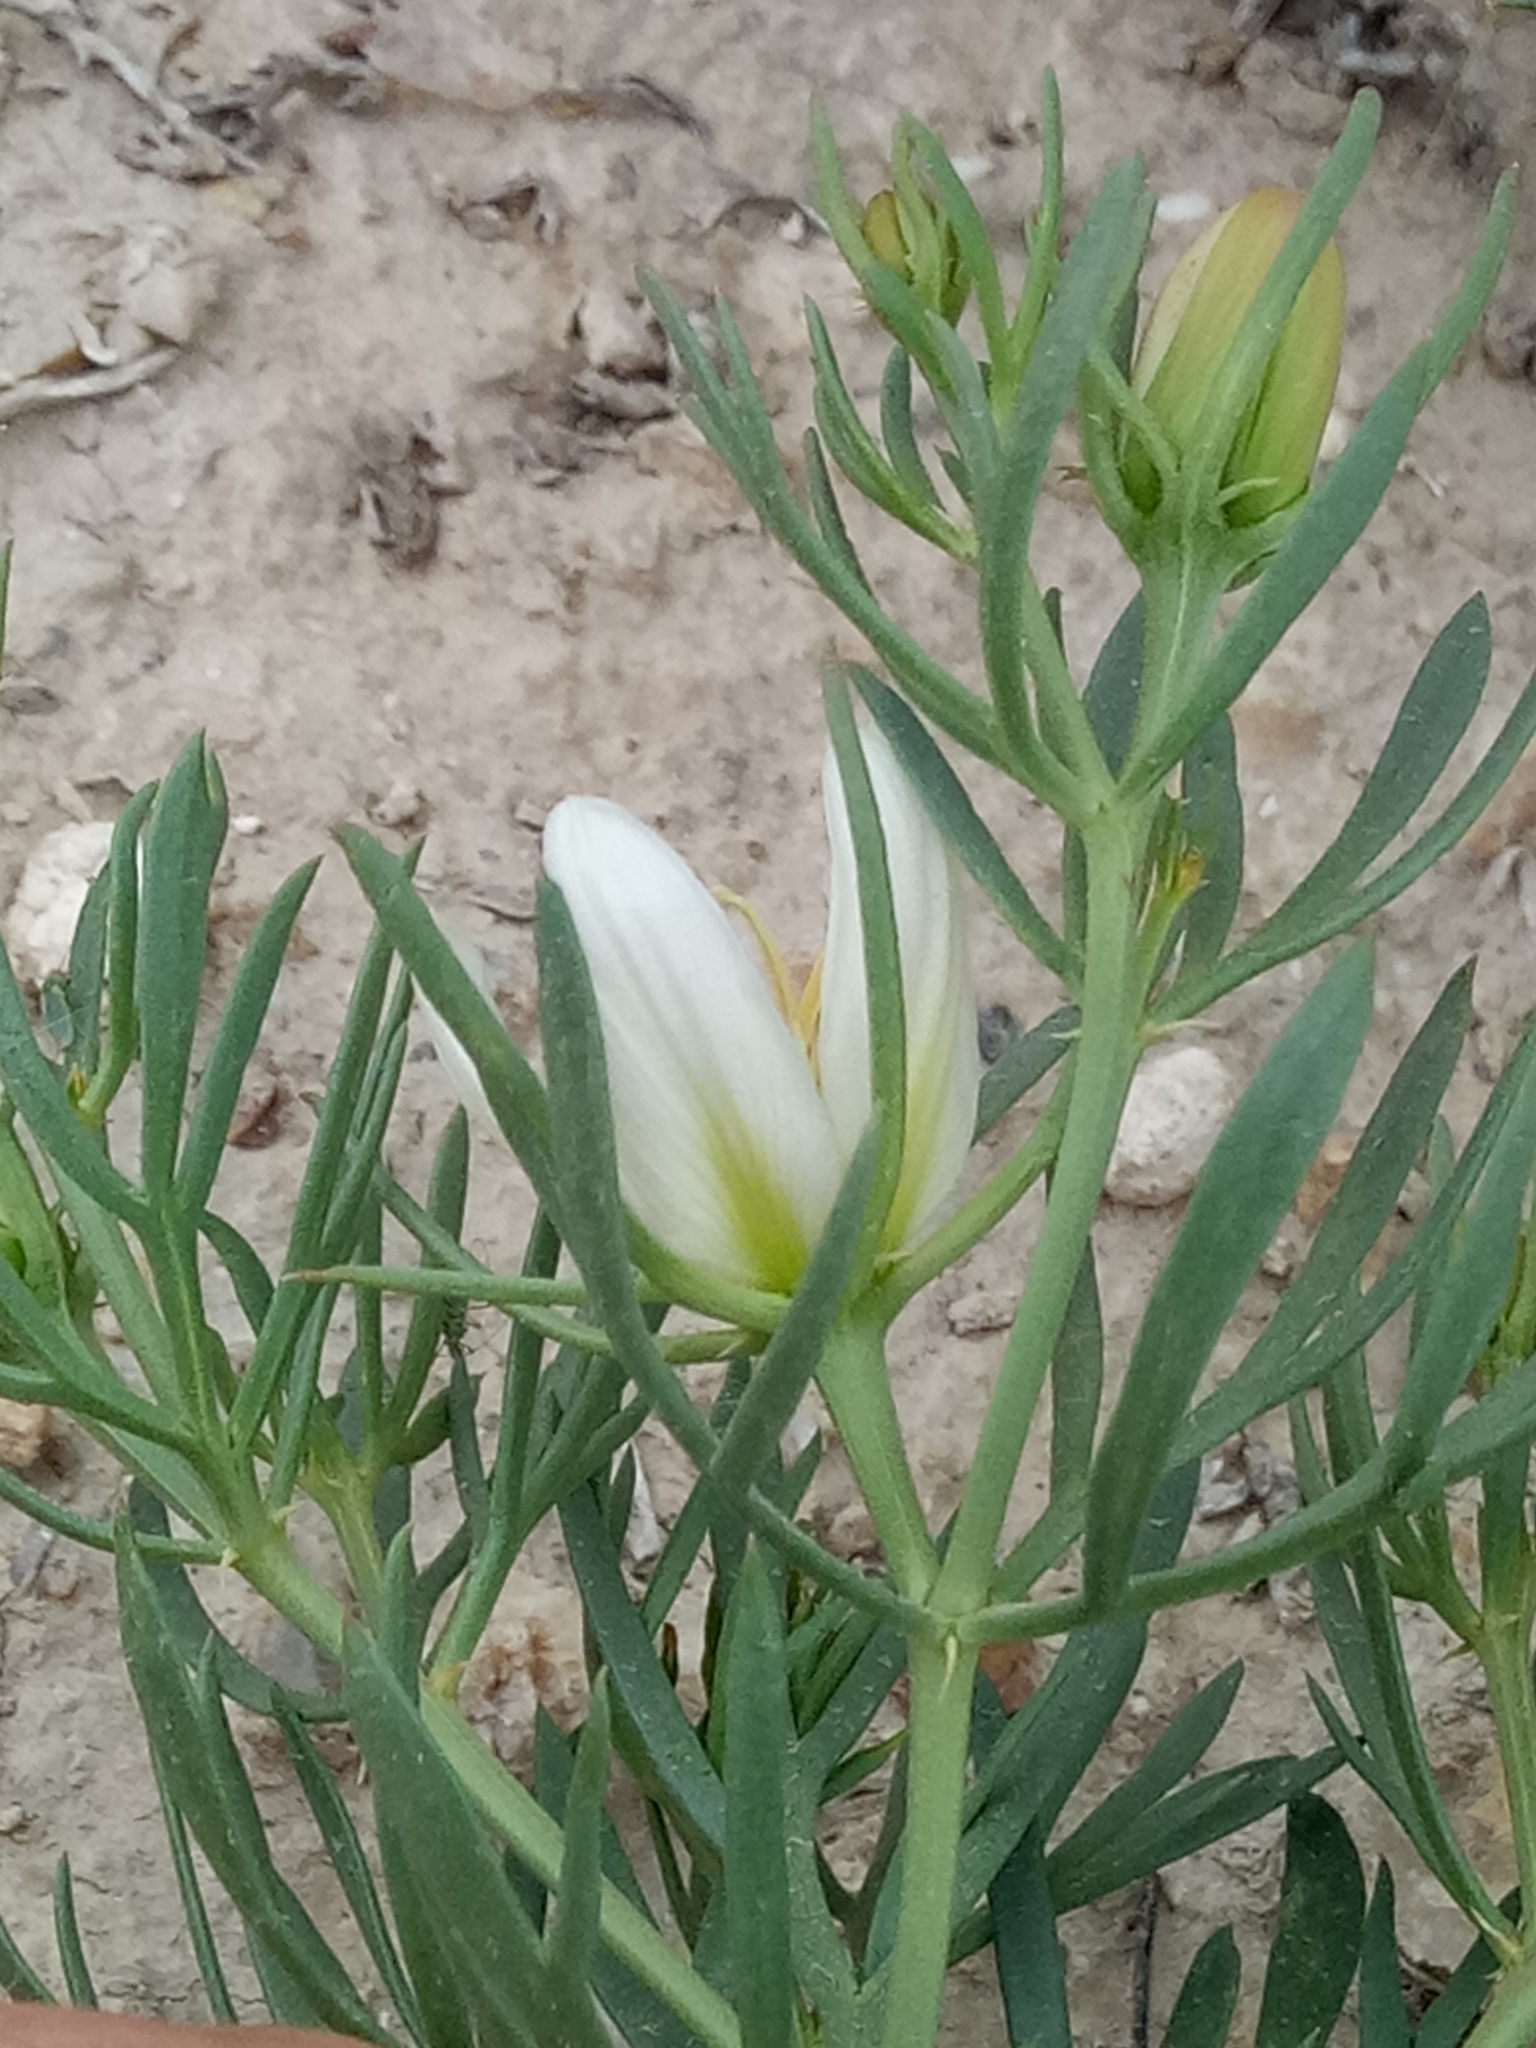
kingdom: Plantae
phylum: Tracheophyta
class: Magnoliopsida
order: Sapindales
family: Tetradiclidaceae
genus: Peganum
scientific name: Peganum harmala
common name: Harmal peganum
